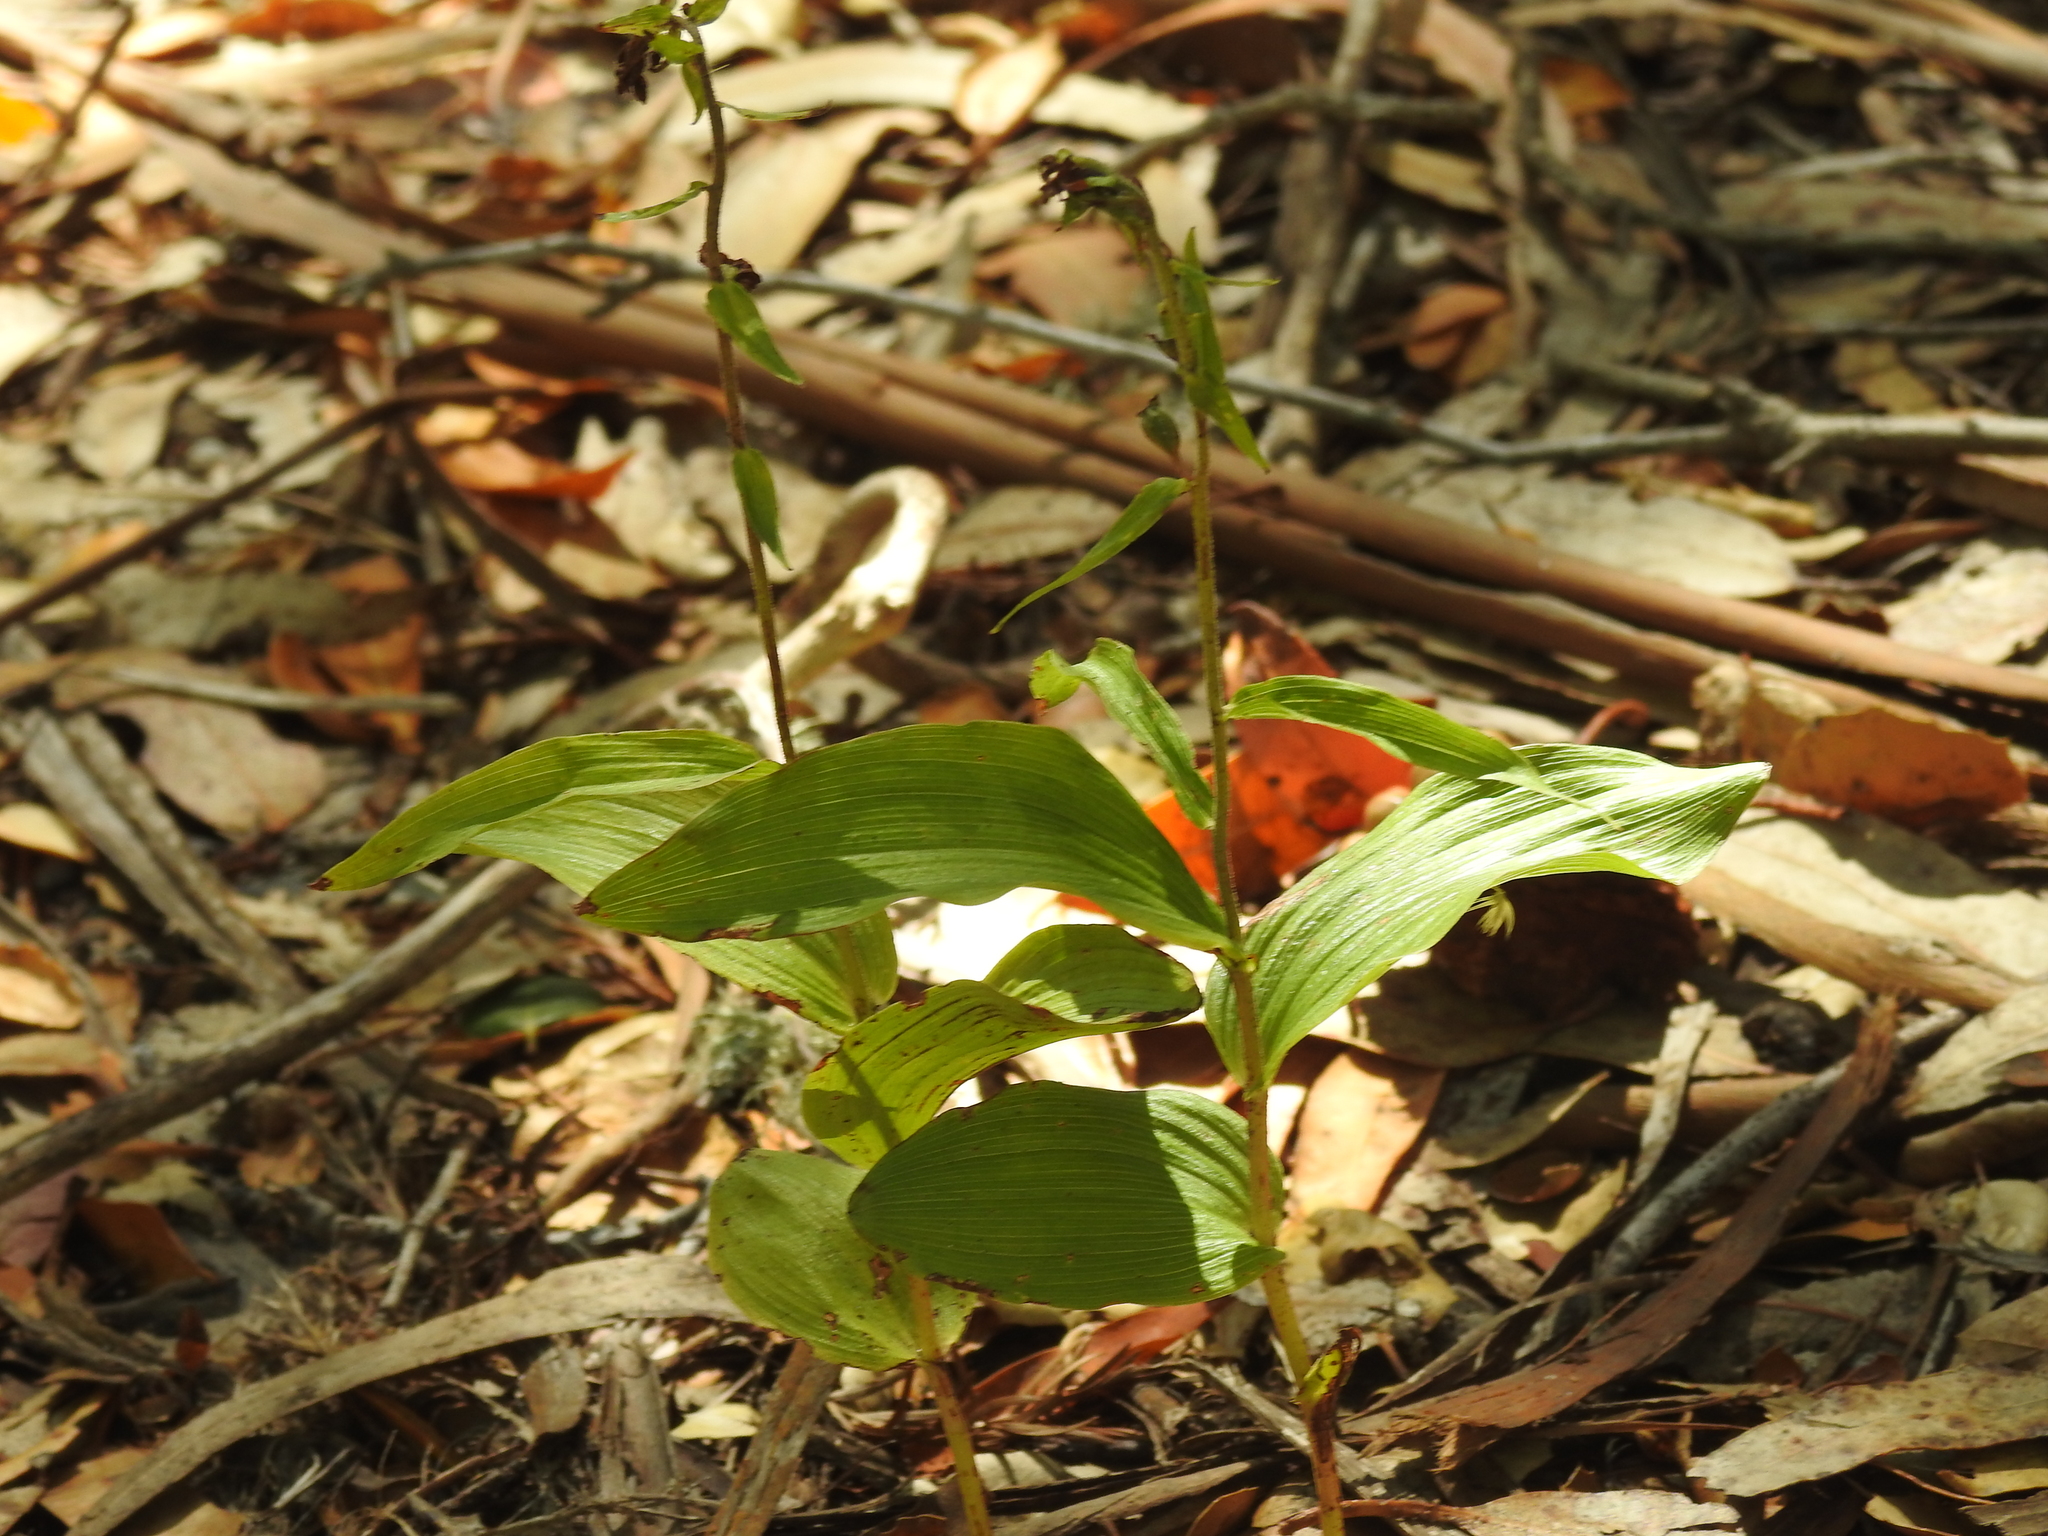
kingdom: Plantae
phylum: Tracheophyta
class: Liliopsida
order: Asparagales
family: Orchidaceae
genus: Epipactis
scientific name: Epipactis helleborine
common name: Broad-leaved helleborine
